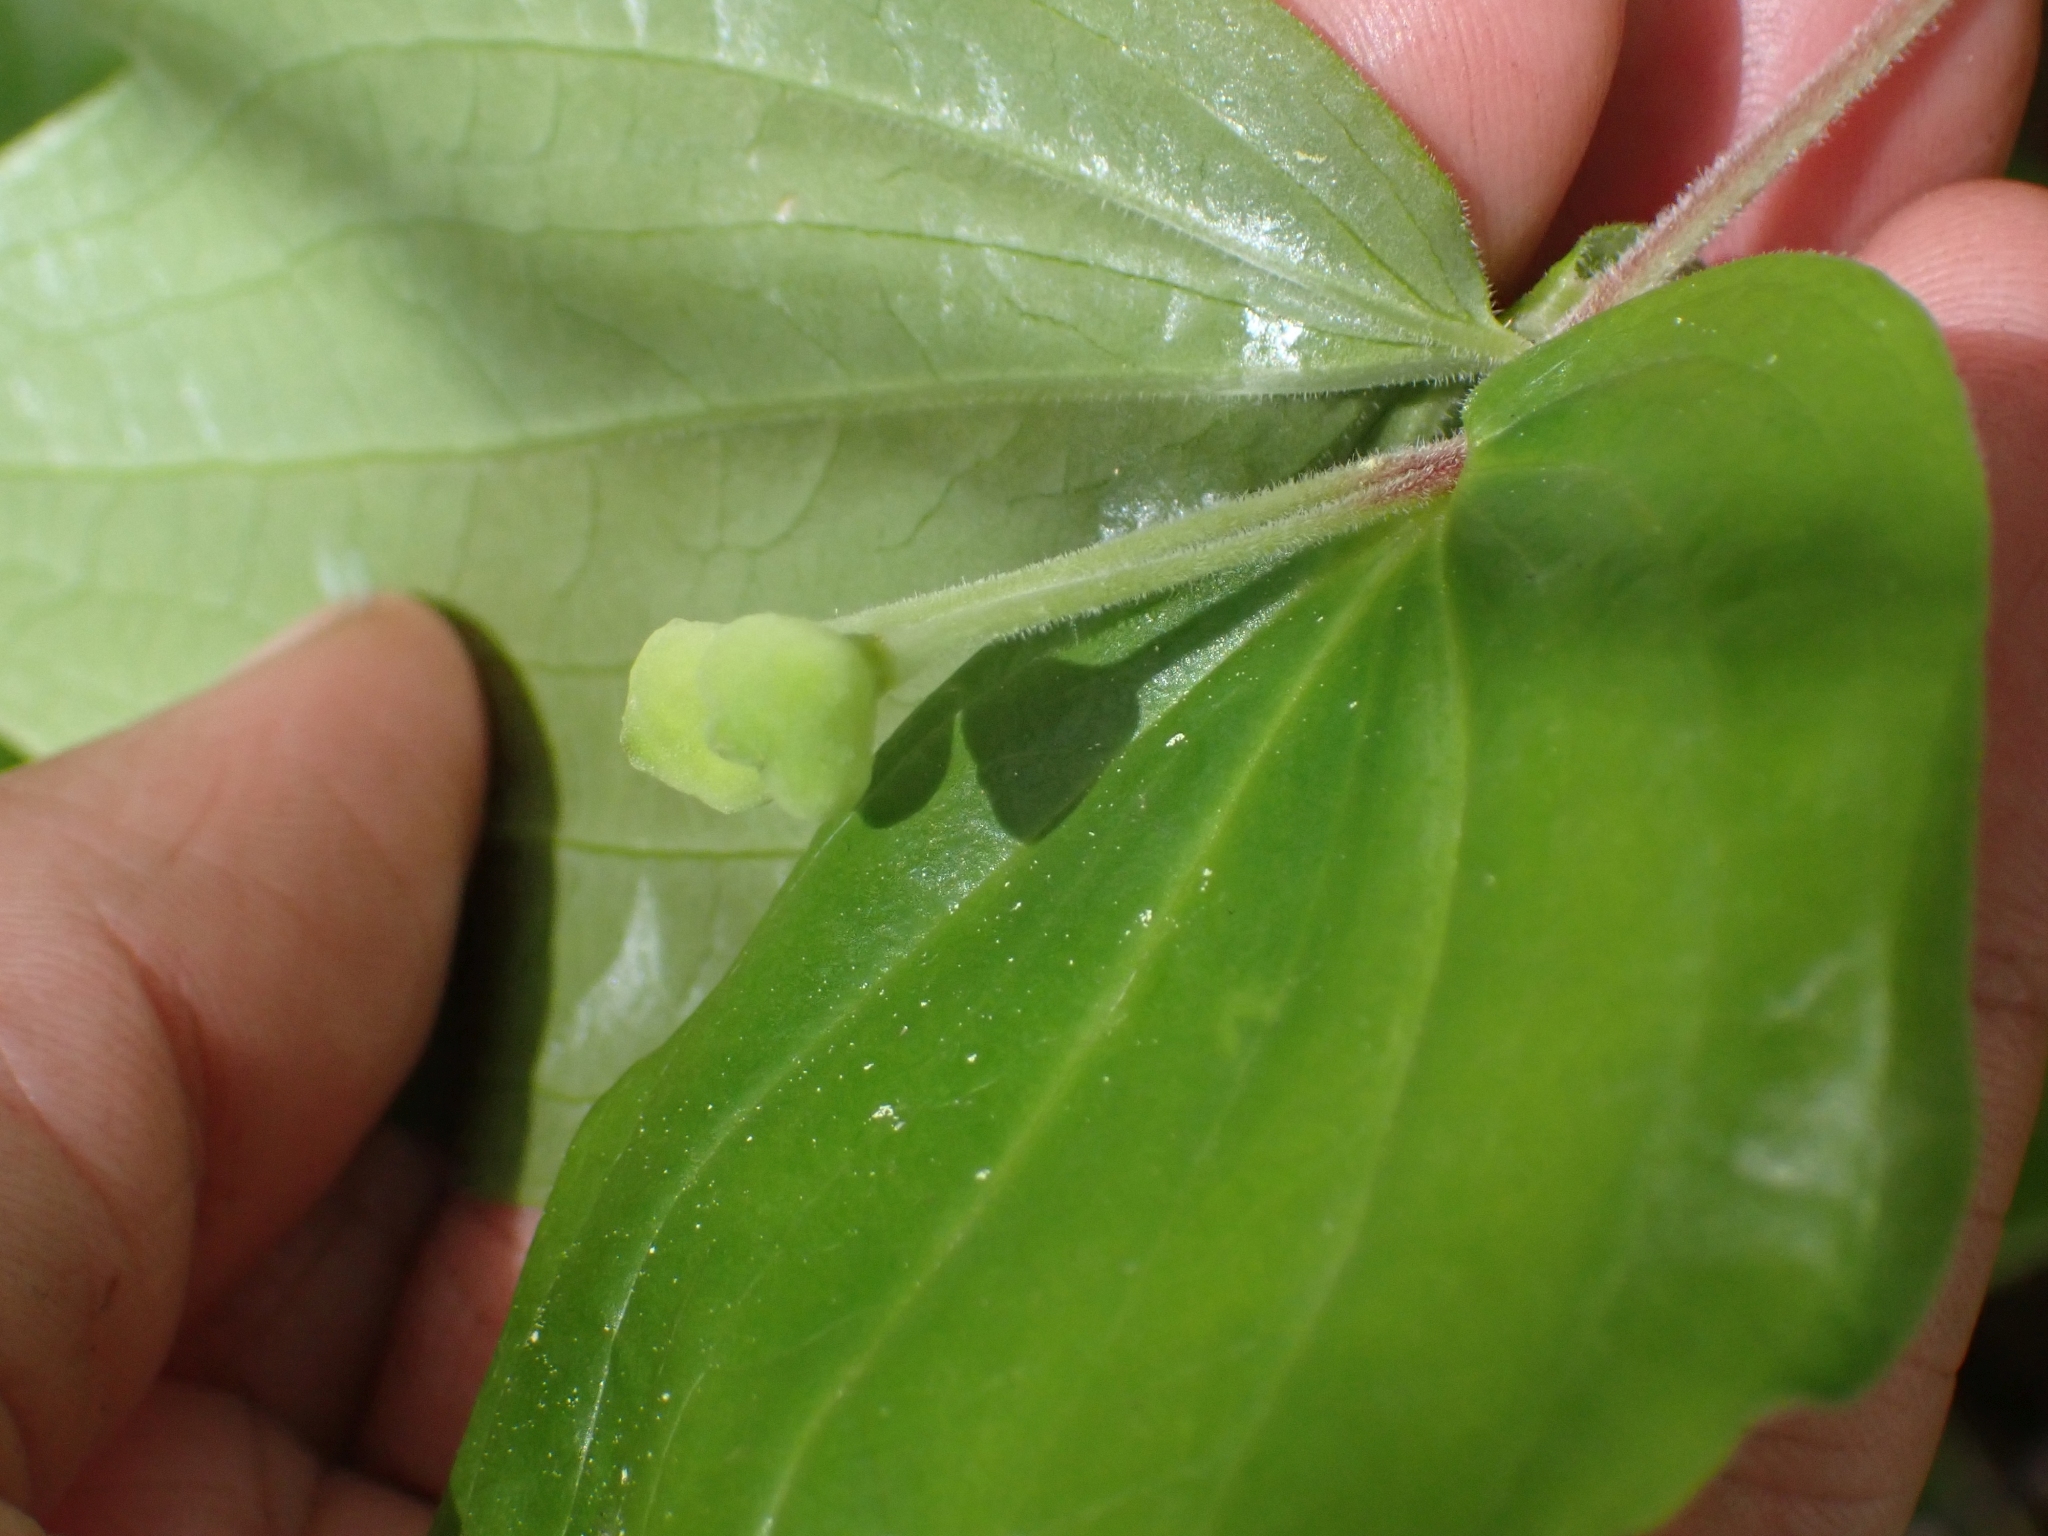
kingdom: Plantae
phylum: Tracheophyta
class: Liliopsida
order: Liliales
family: Liliaceae
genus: Prosartes
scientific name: Prosartes trachycarpa
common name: Rough-fruit fairy-bells
